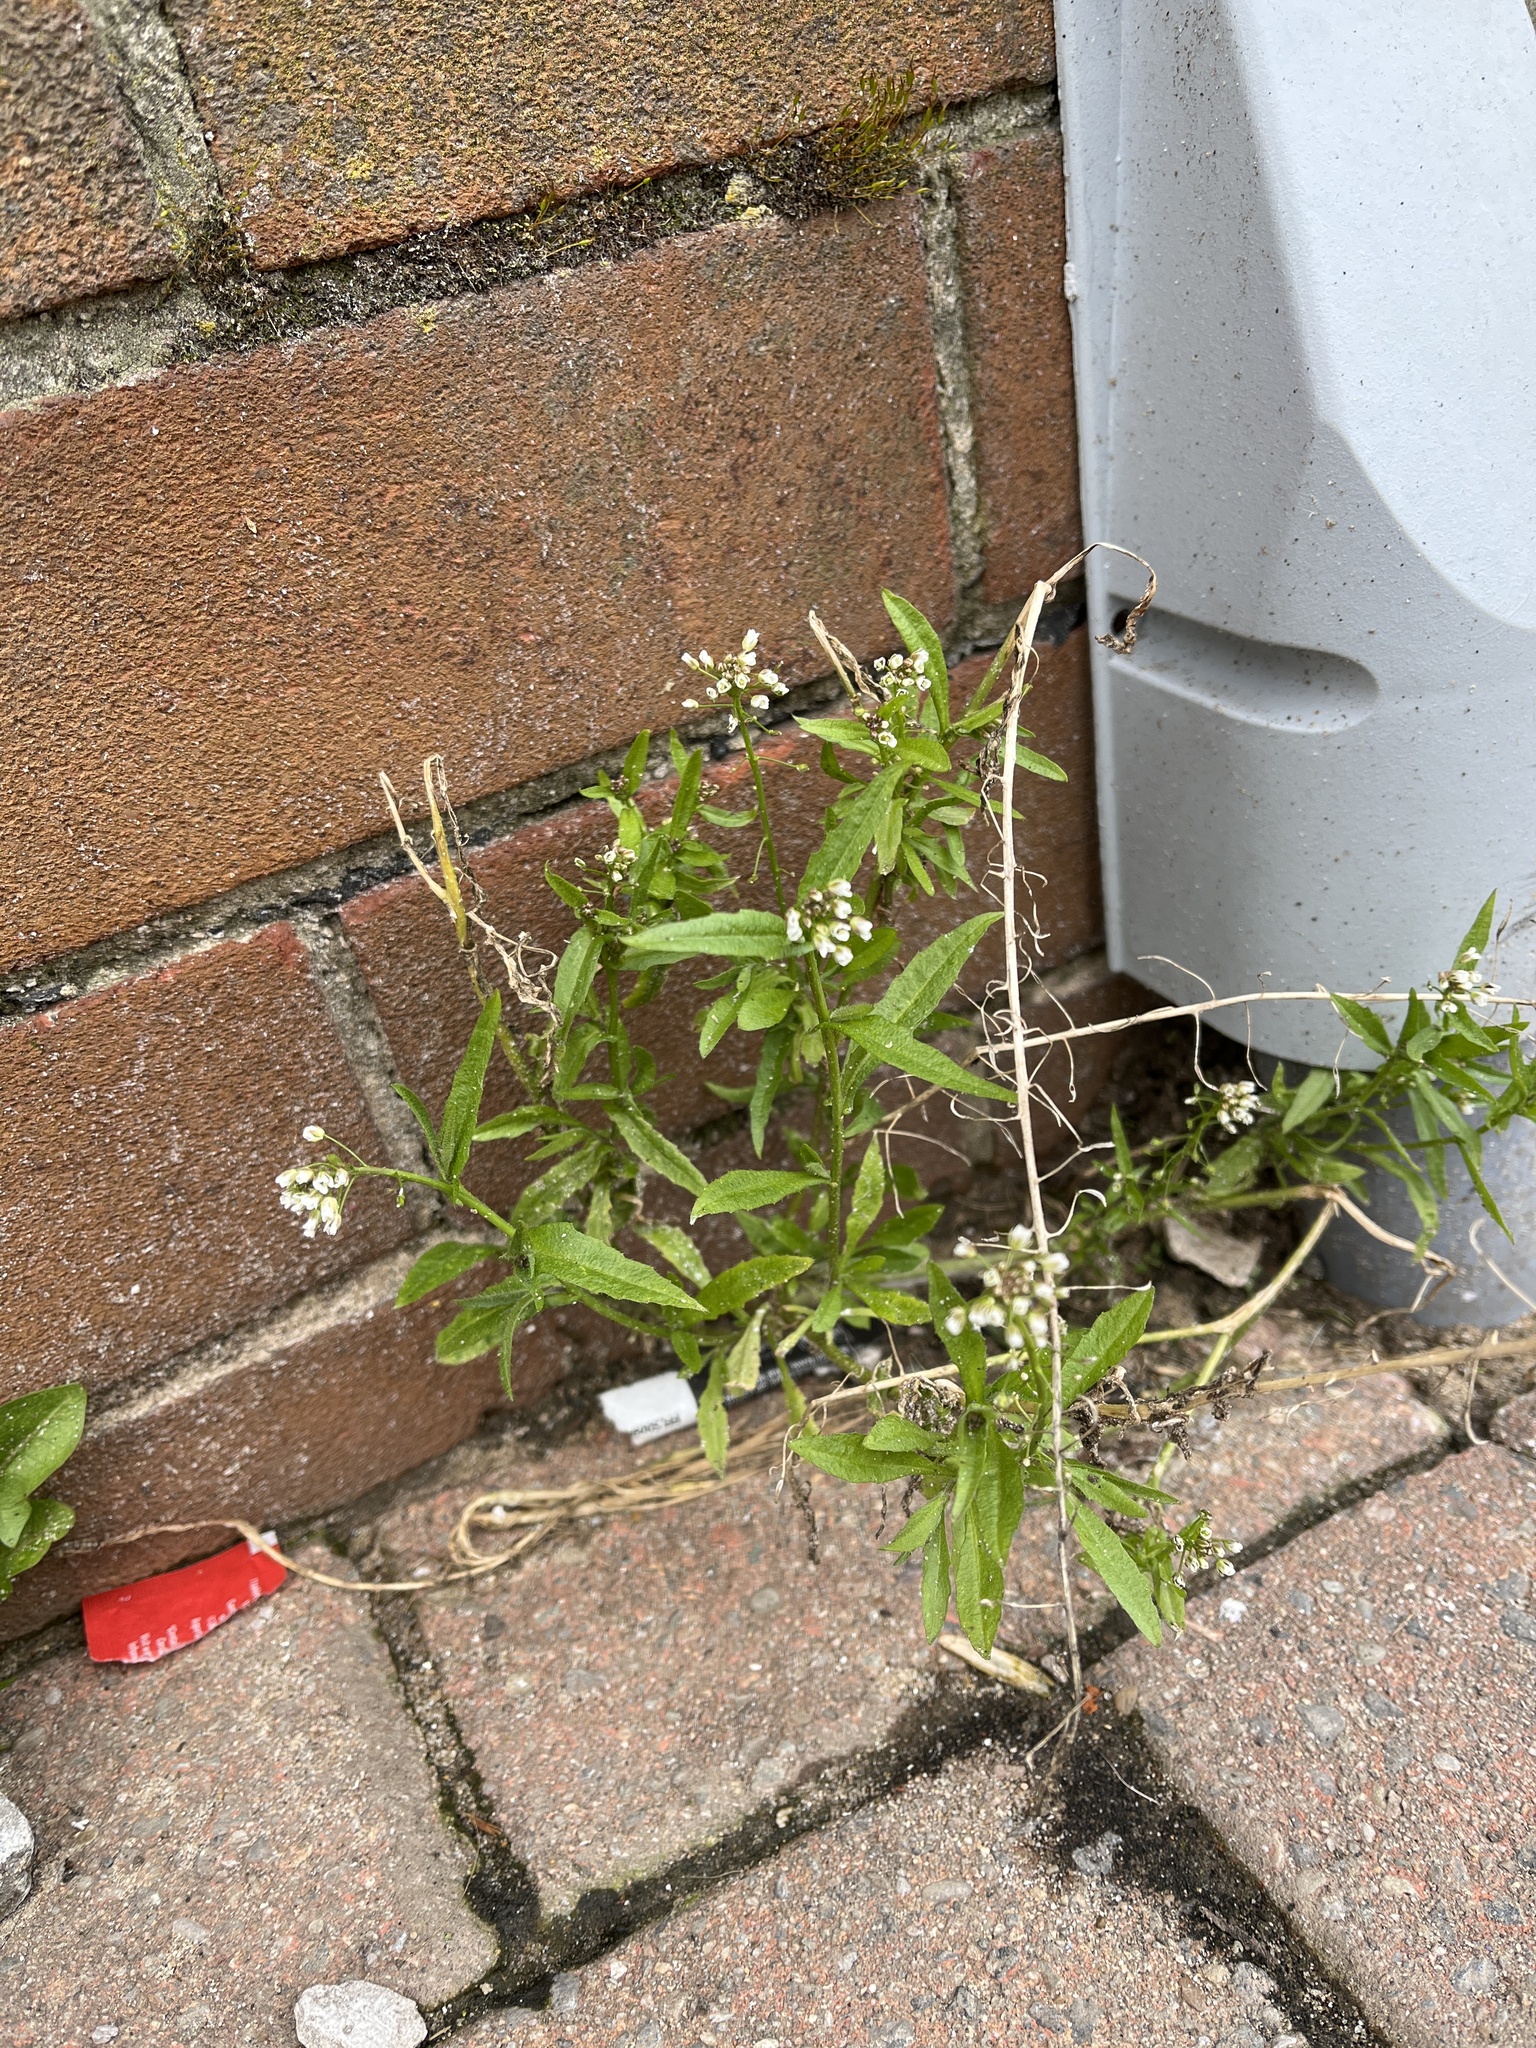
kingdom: Plantae
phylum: Tracheophyta
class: Magnoliopsida
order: Brassicales
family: Brassicaceae
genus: Capsella
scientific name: Capsella bursa-pastoris
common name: Shepherd's purse
